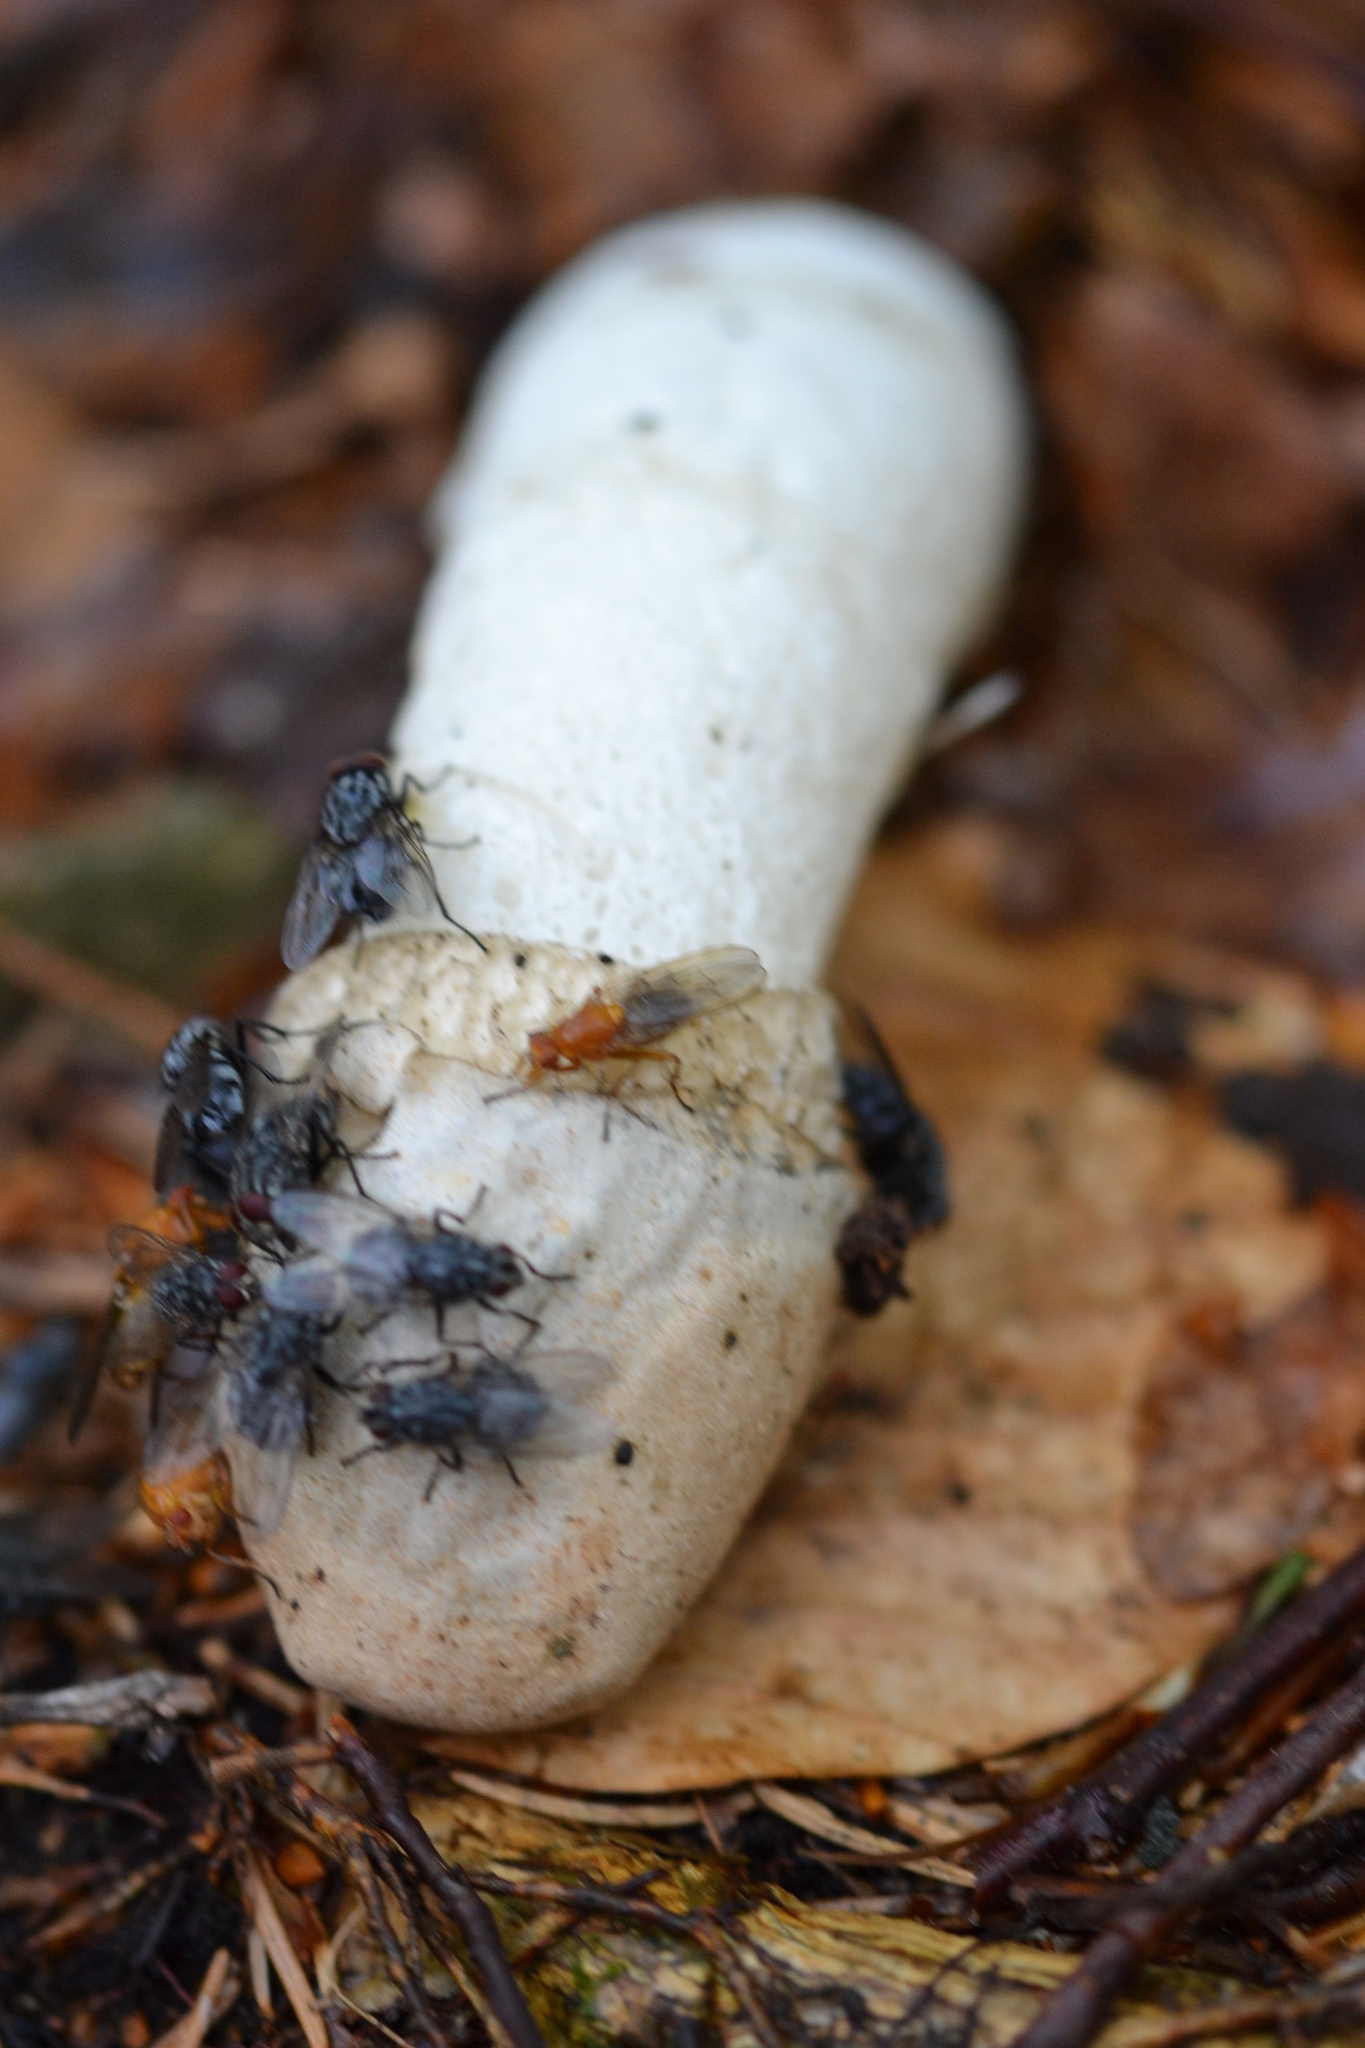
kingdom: Fungi
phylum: Basidiomycota
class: Agaricomycetes
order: Phallales
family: Phallaceae
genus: Phallus
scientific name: Phallus impudicus
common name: Common stinkhorn
